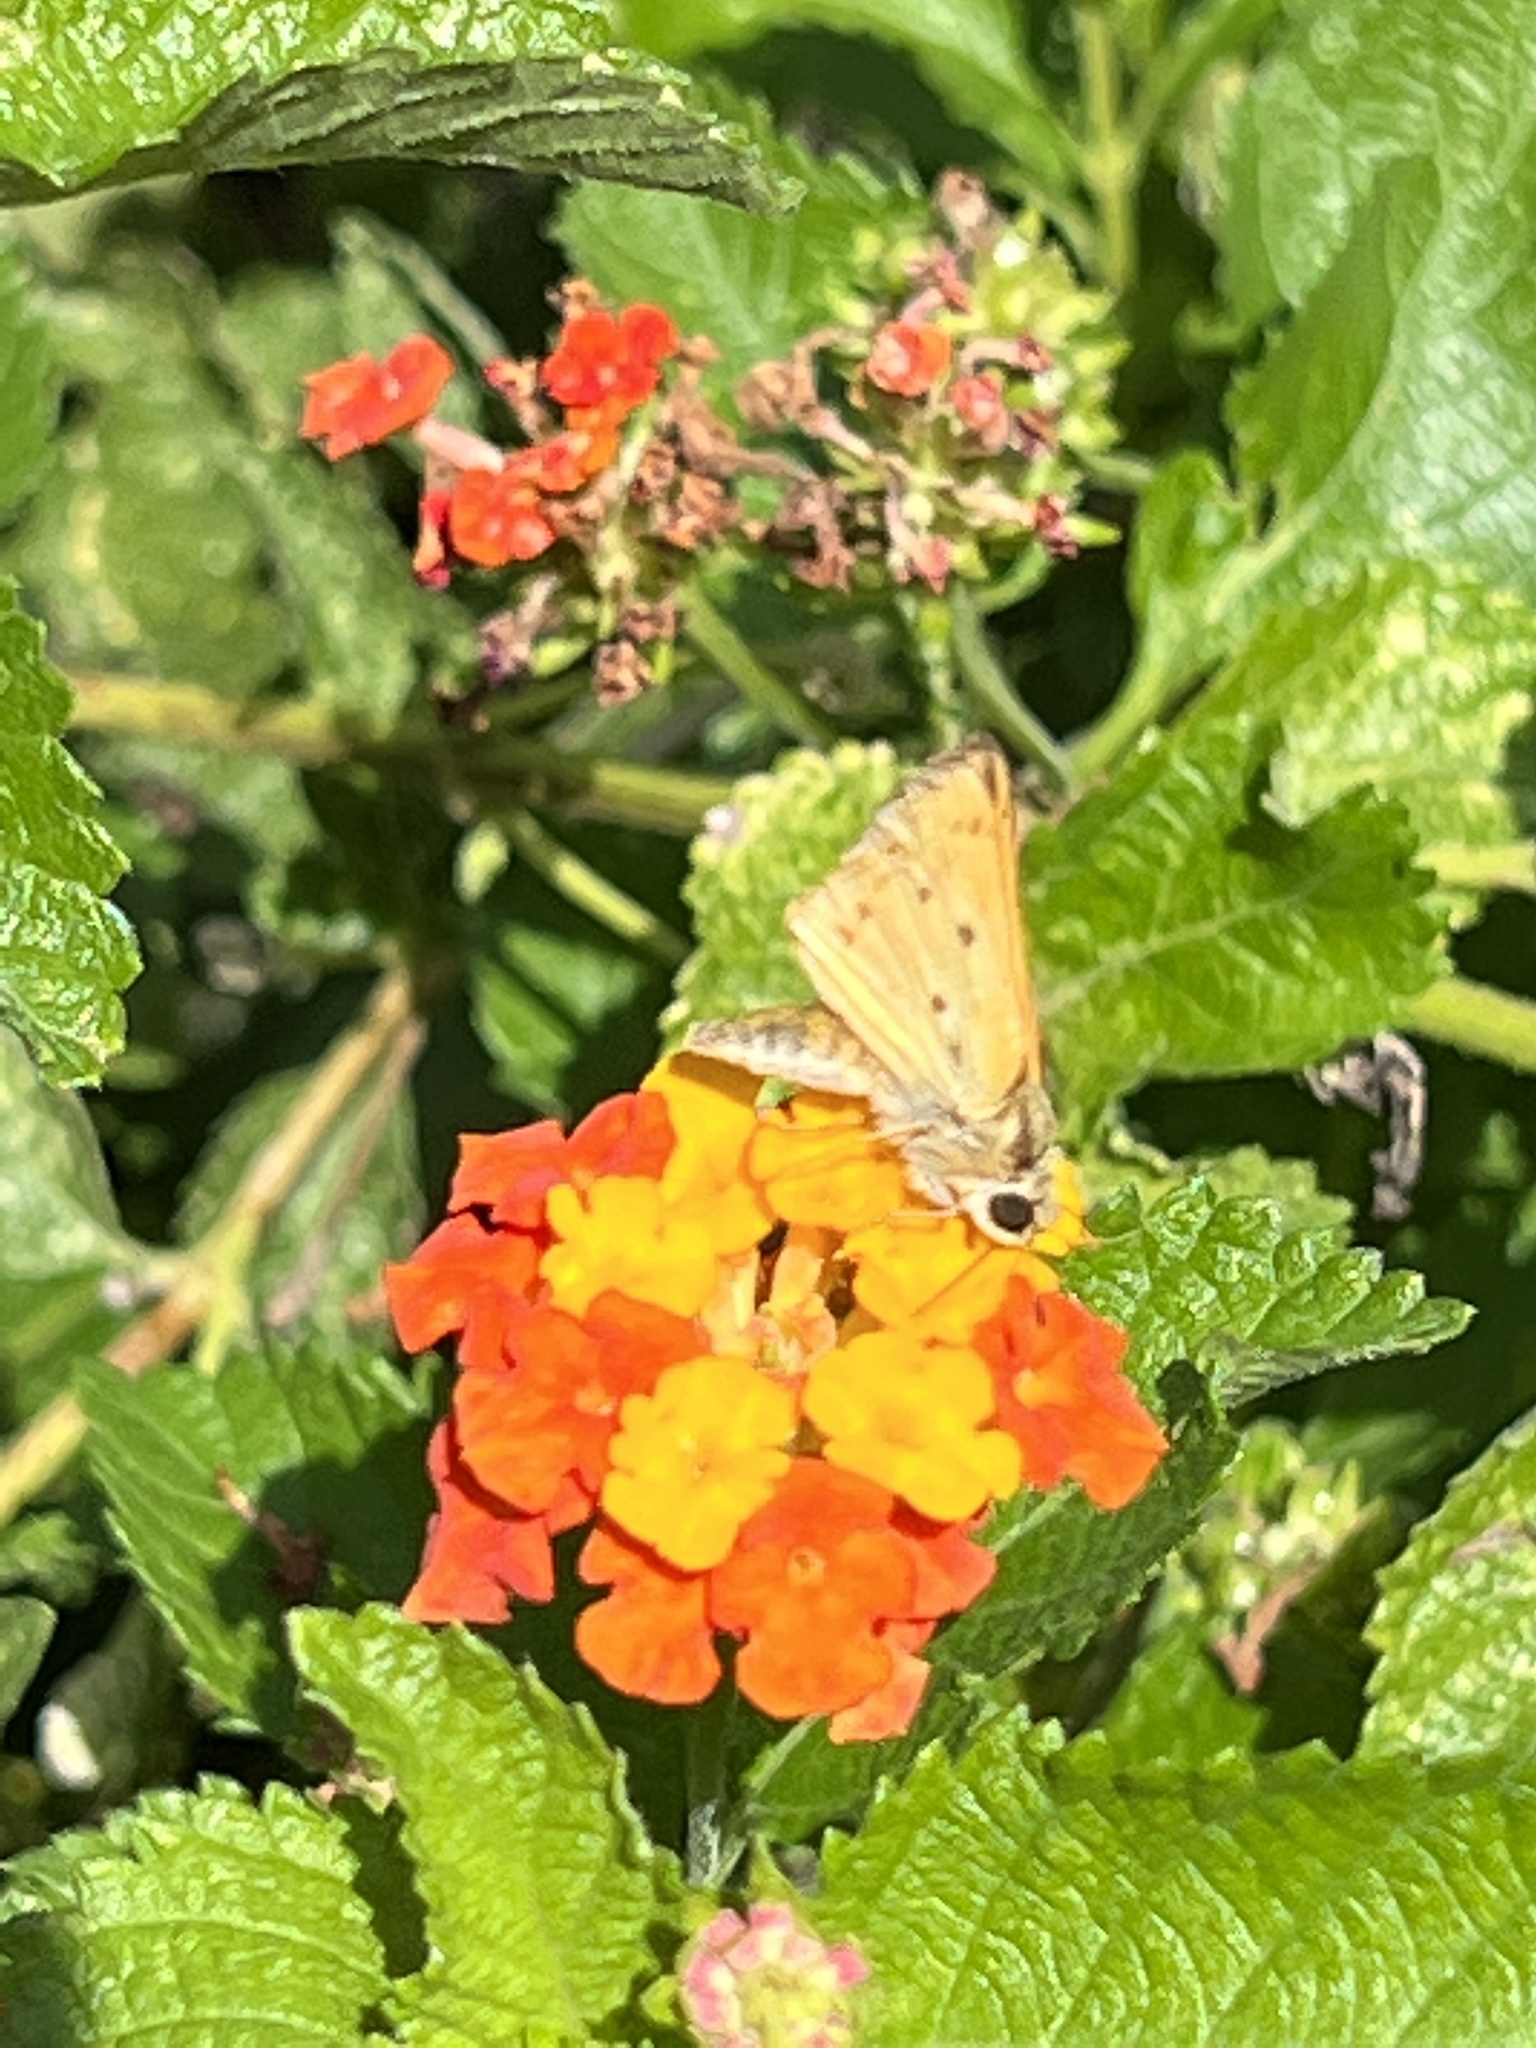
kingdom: Animalia
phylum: Arthropoda
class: Insecta
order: Lepidoptera
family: Hesperiidae
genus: Hylephila
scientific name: Hylephila phyleus
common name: Fiery skipper
